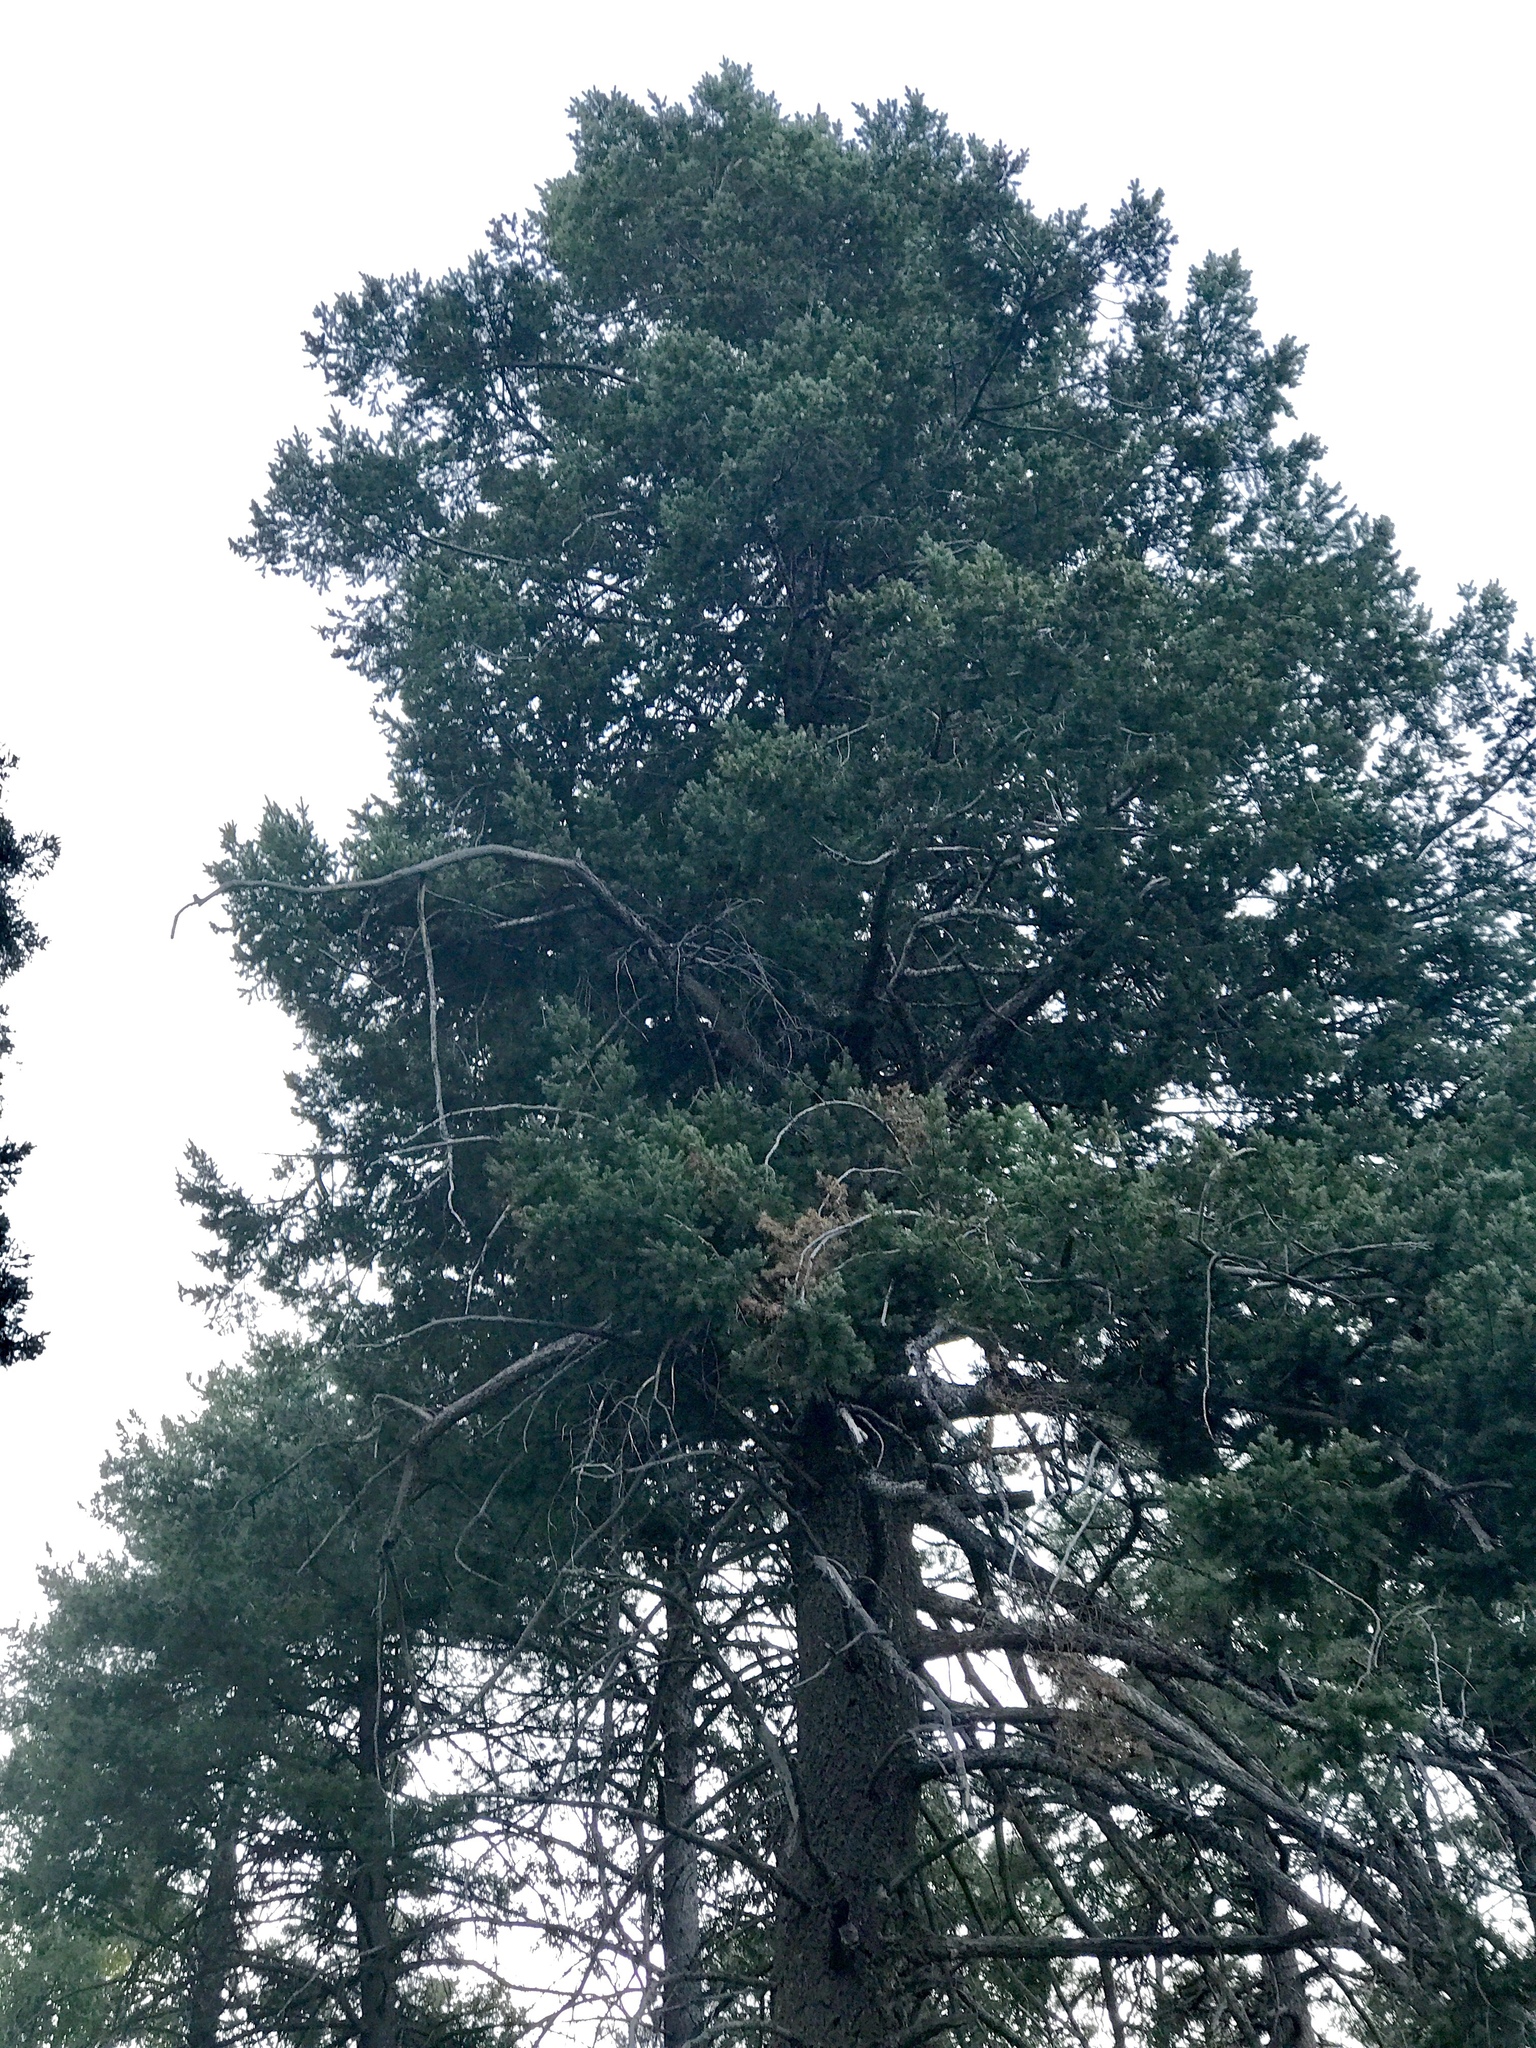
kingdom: Plantae
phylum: Tracheophyta
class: Pinopsida
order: Pinales
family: Pinaceae
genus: Pseudotsuga
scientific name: Pseudotsuga menziesii
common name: Douglas fir
